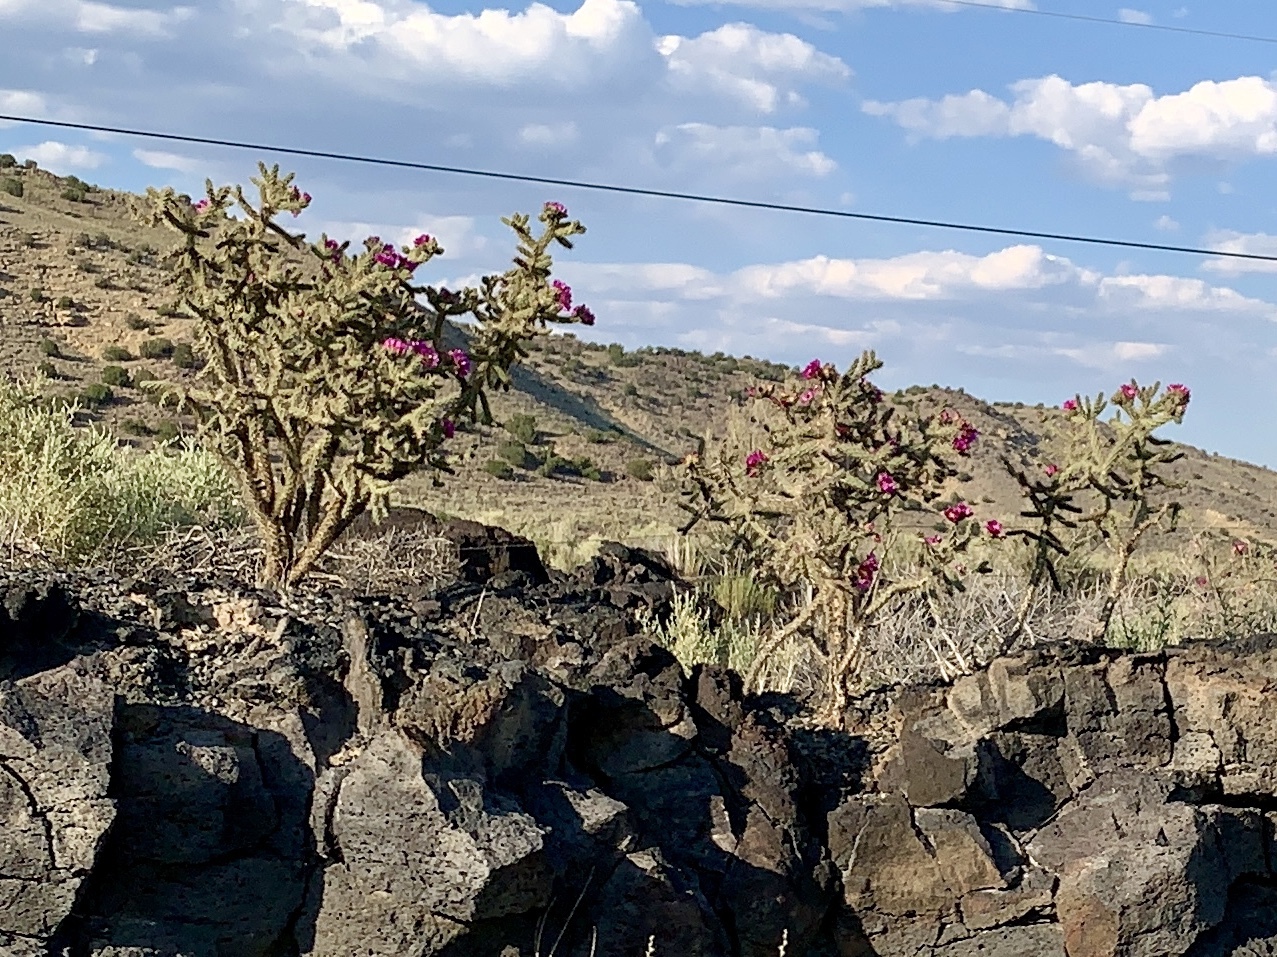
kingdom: Plantae
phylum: Tracheophyta
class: Magnoliopsida
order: Caryophyllales
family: Cactaceae
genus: Cylindropuntia
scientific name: Cylindropuntia imbricata
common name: Candelabrum cactus
